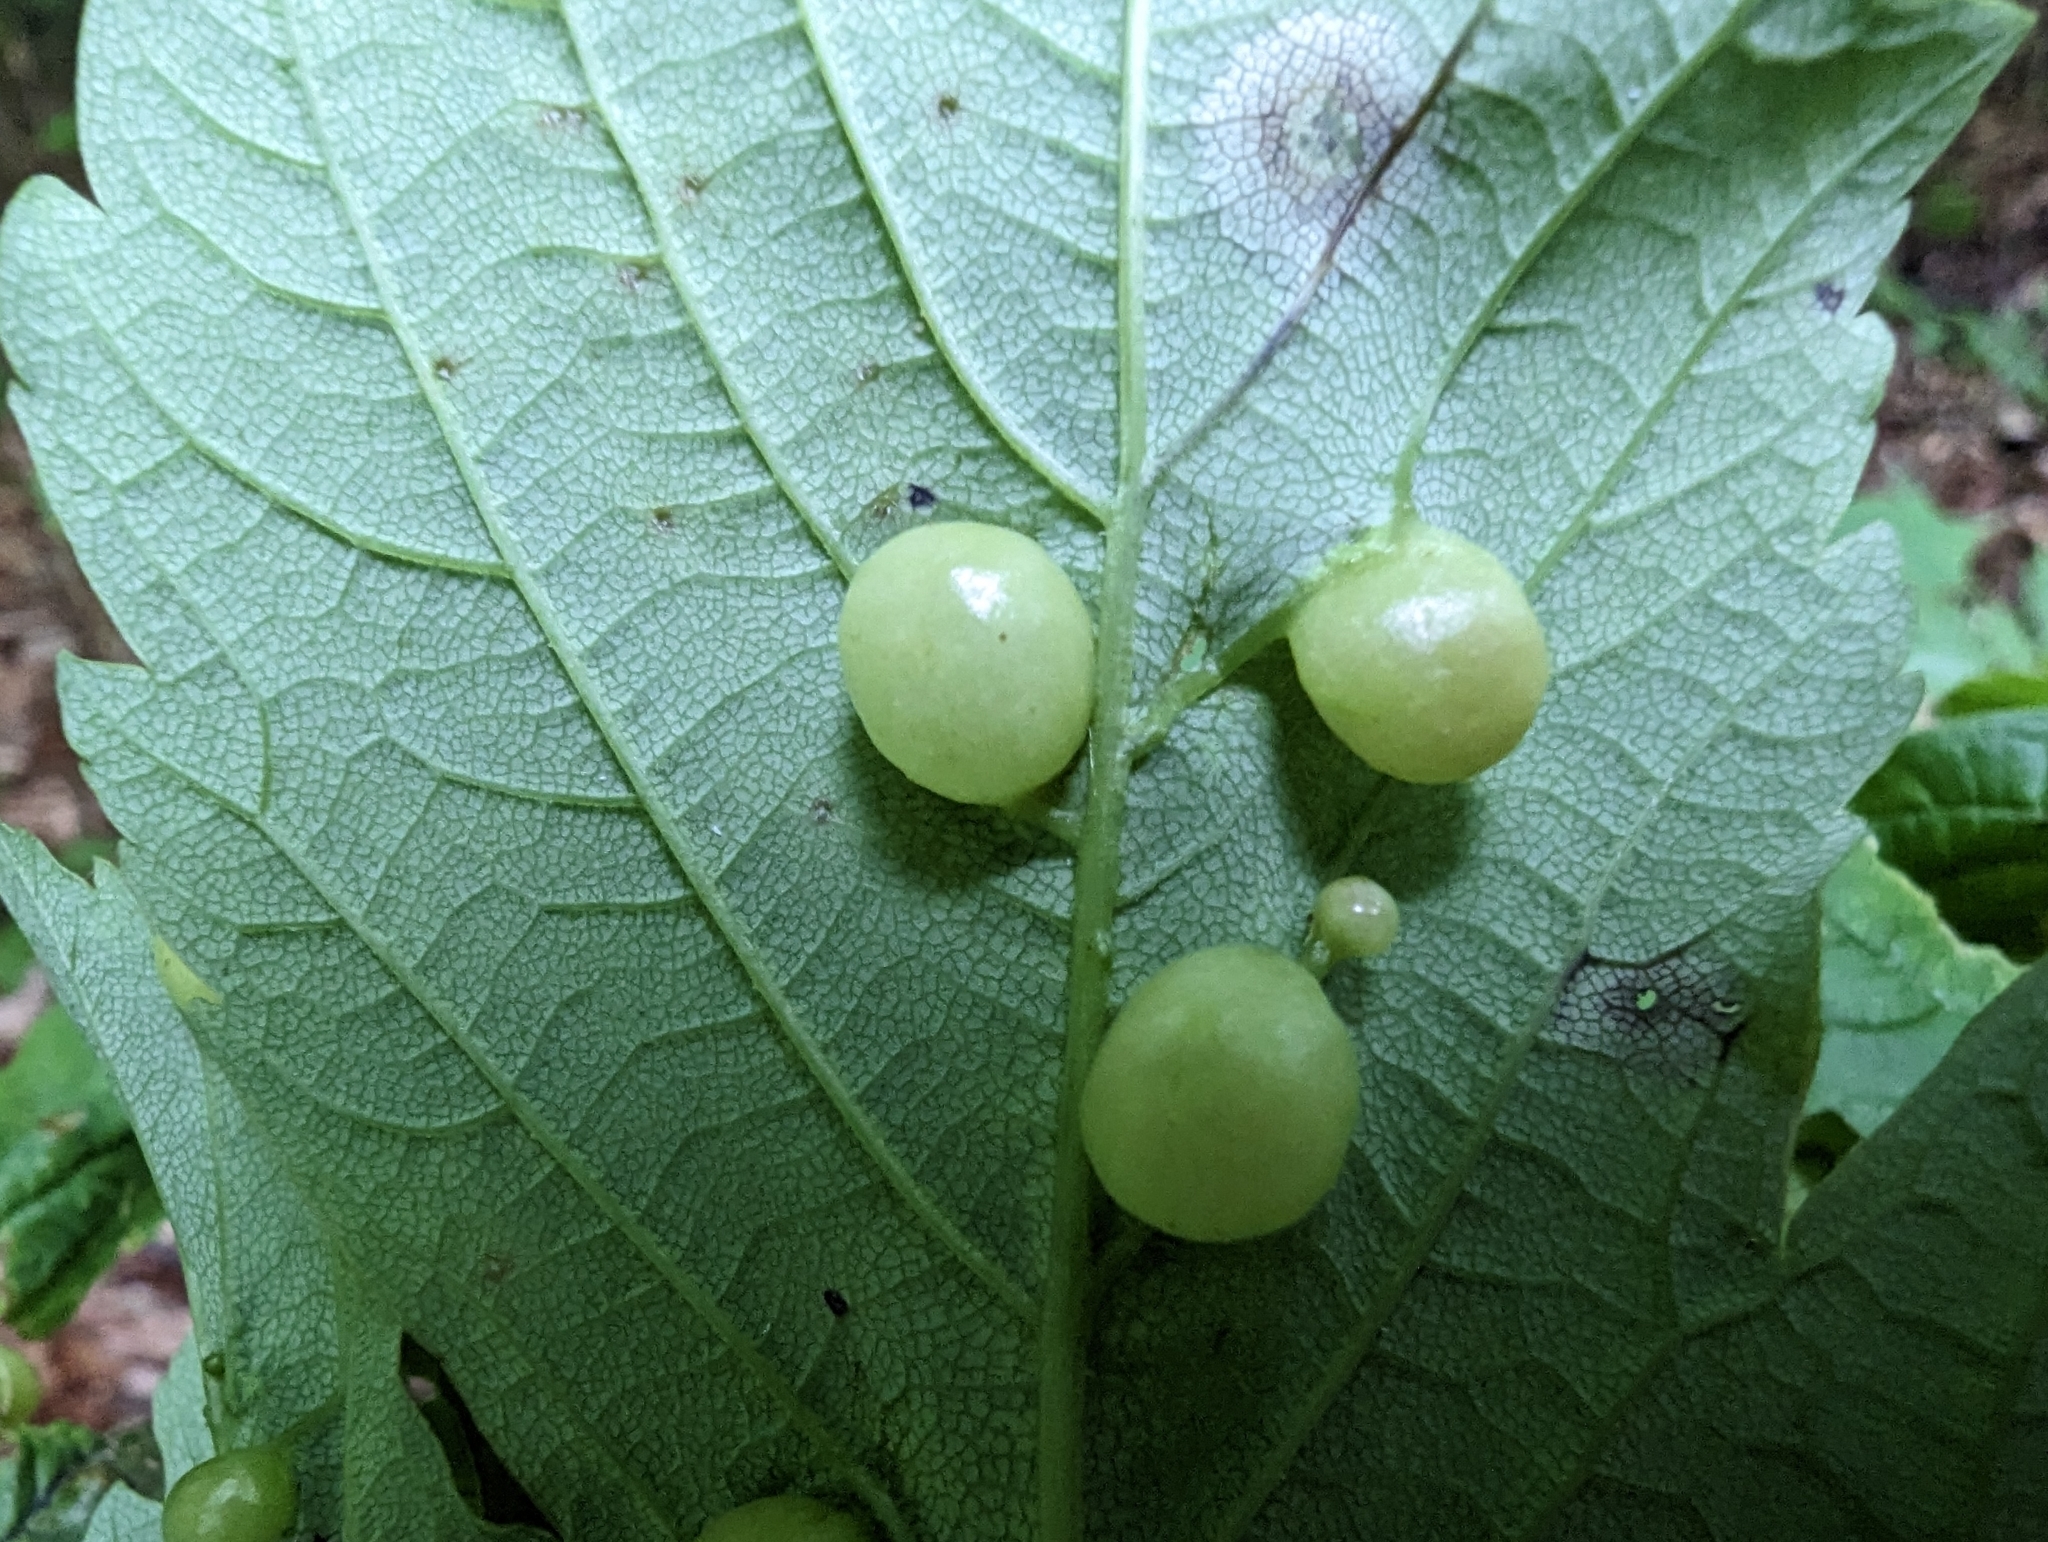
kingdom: Animalia
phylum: Arthropoda
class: Insecta
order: Hymenoptera
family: Cynipidae
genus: Pediaspis
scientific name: Pediaspis aceris
